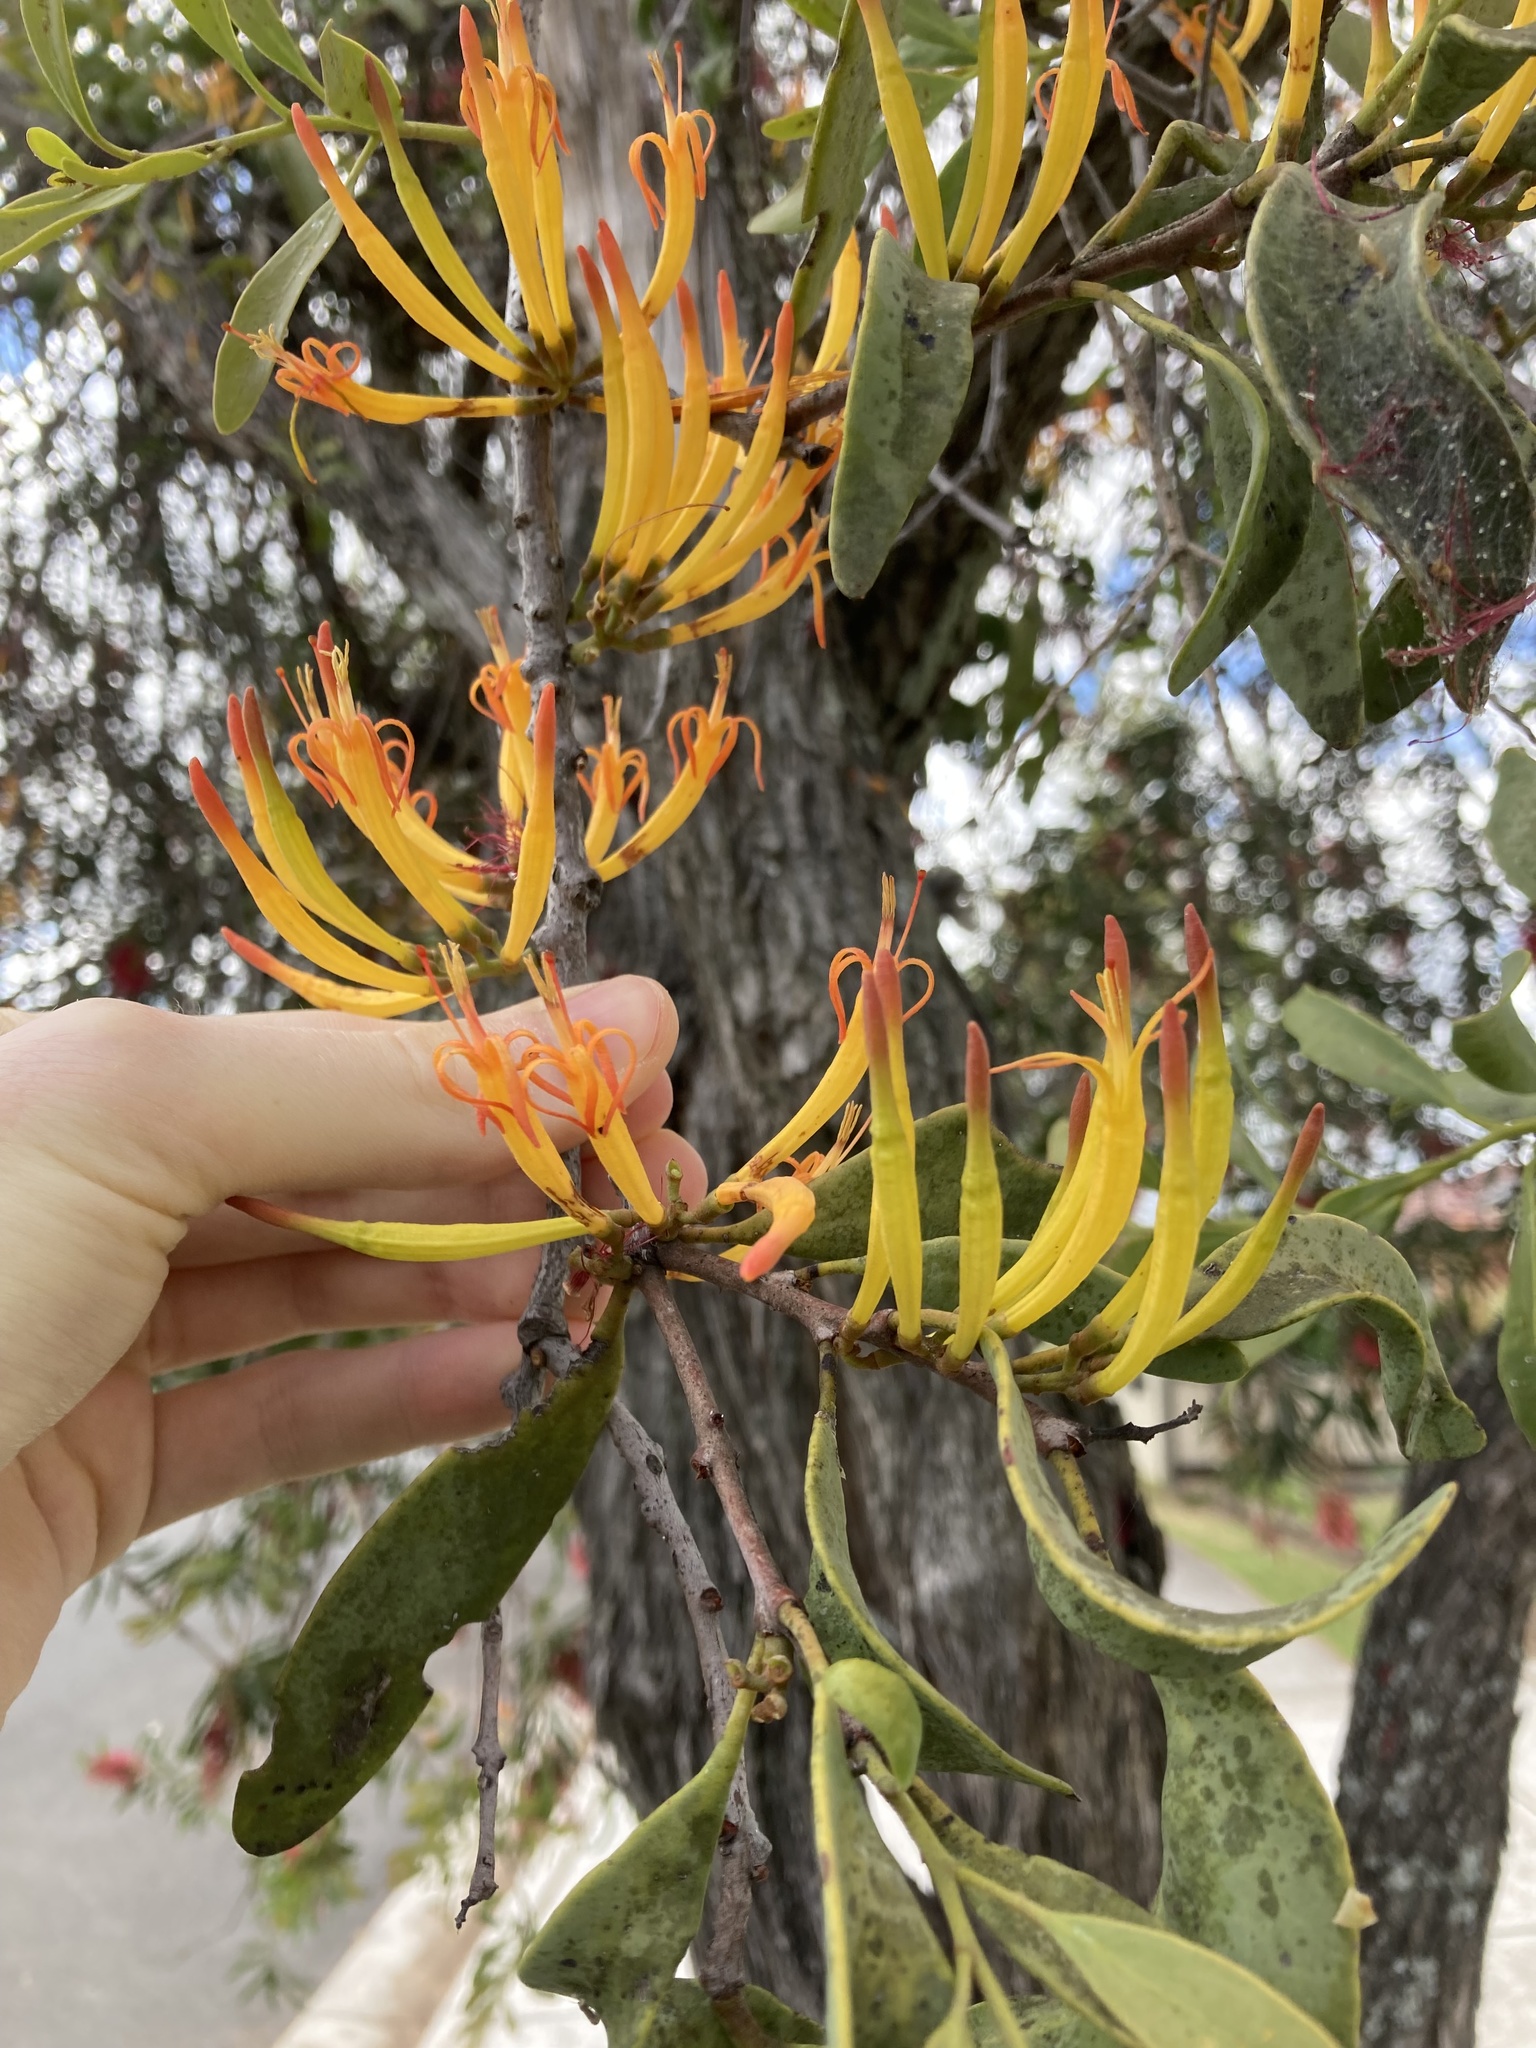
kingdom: Plantae
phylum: Tracheophyta
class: Magnoliopsida
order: Santalales
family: Loranthaceae
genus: Dendrophthoe
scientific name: Dendrophthoe vitellina
